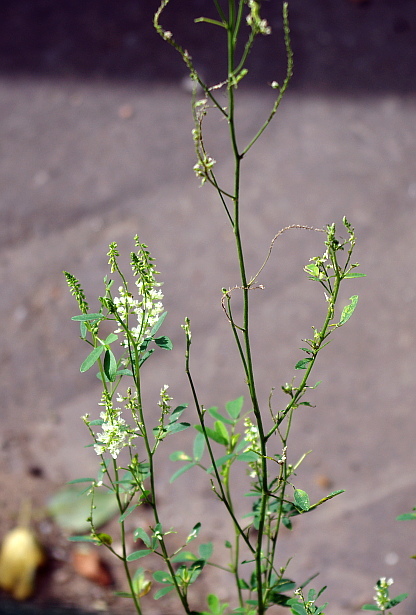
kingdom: Plantae
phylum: Tracheophyta
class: Magnoliopsida
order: Fabales
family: Fabaceae
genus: Melilotus
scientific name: Melilotus albus
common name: White melilot
